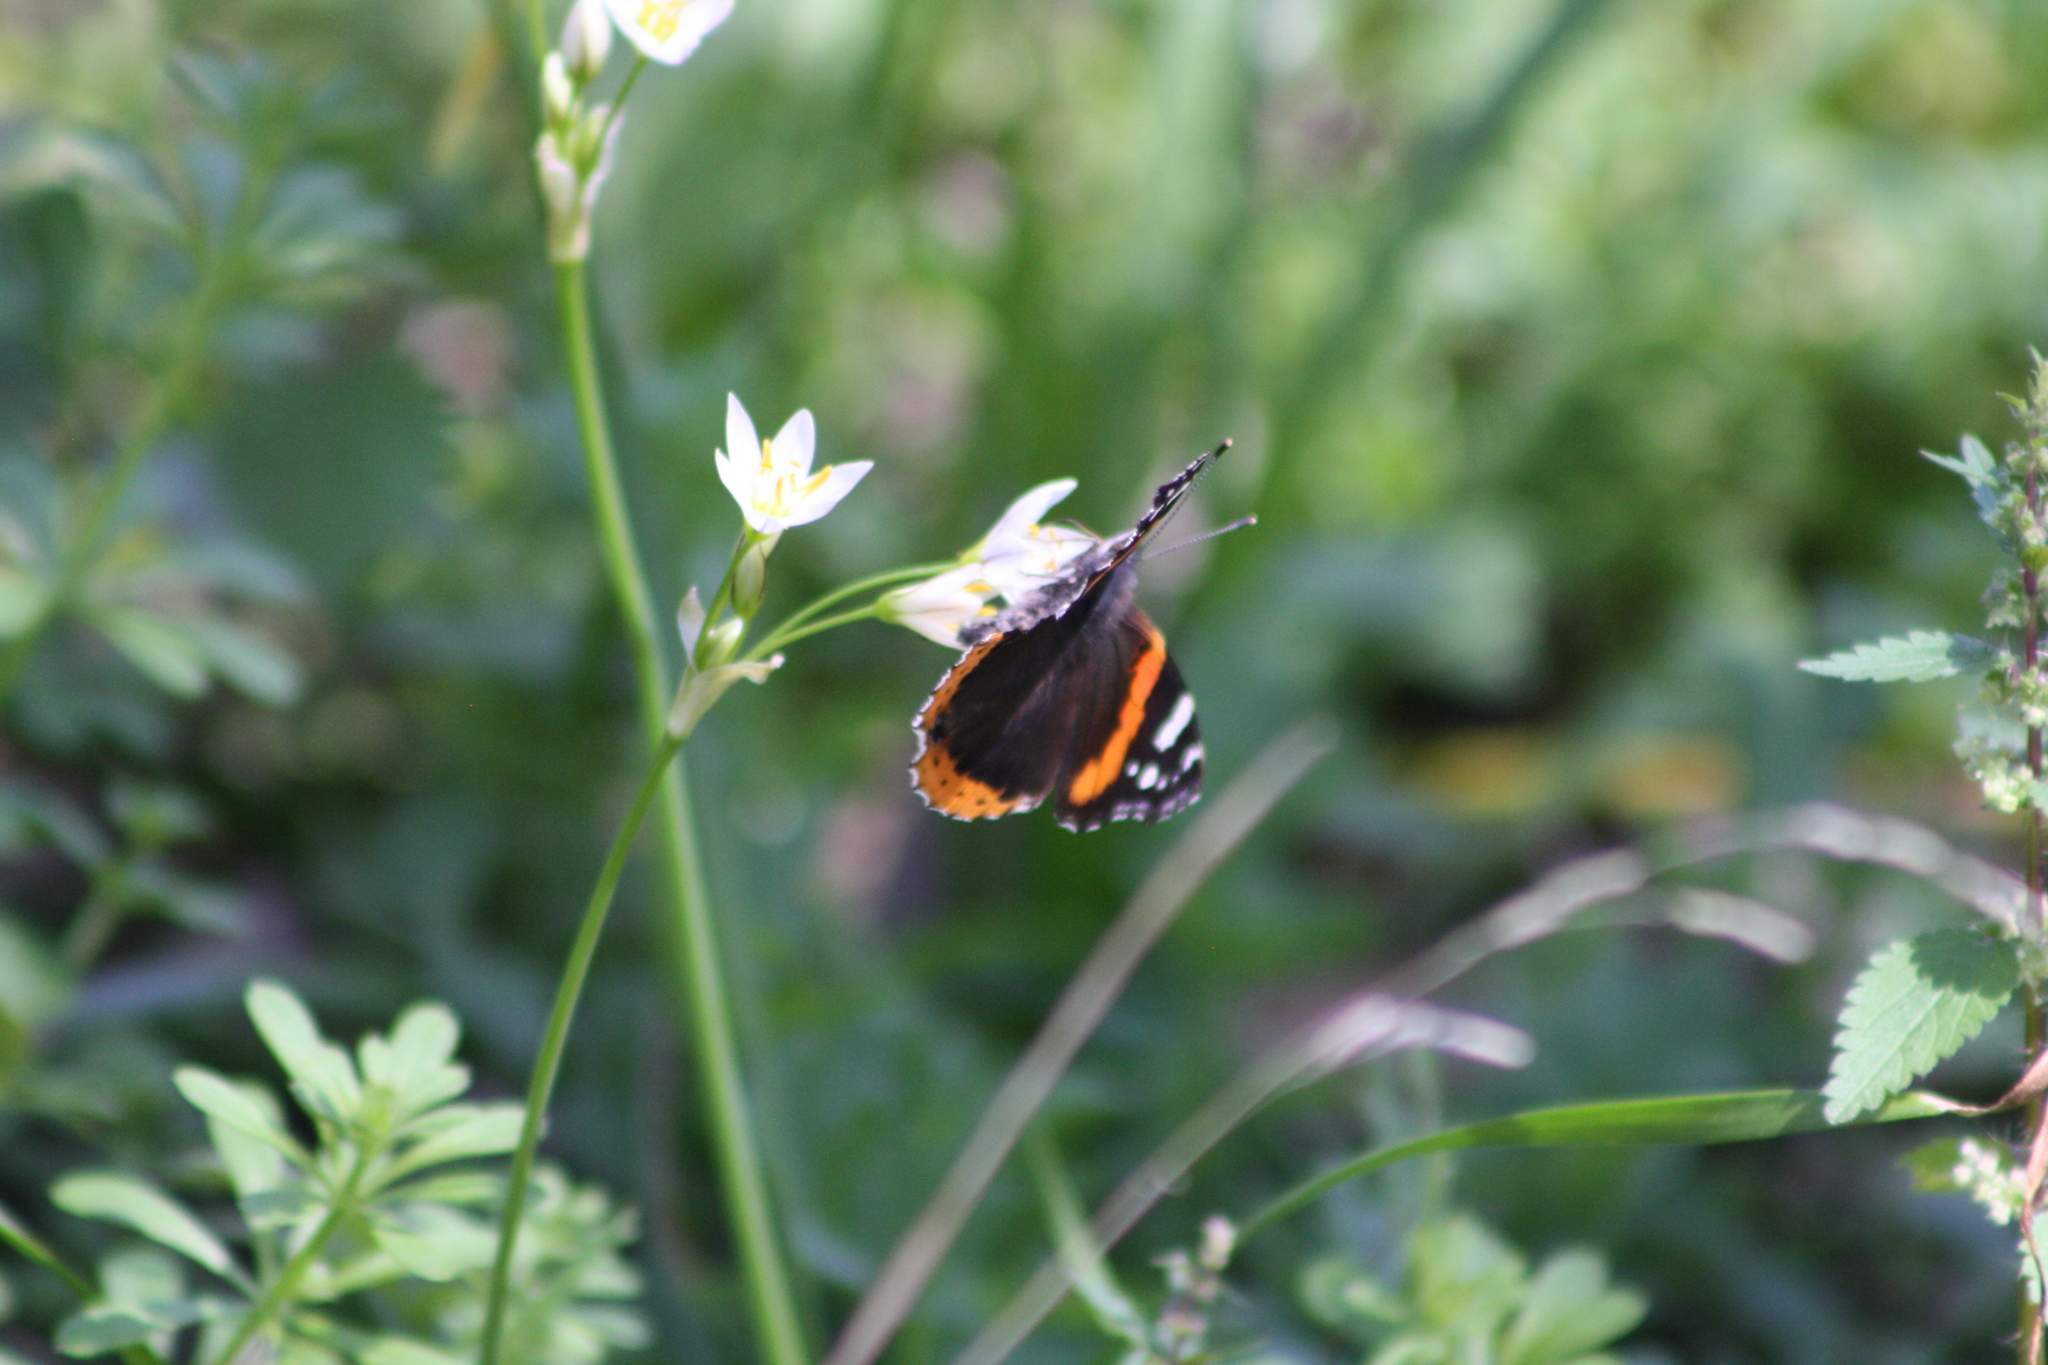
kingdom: Animalia
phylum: Arthropoda
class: Insecta
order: Lepidoptera
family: Nymphalidae
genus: Vanessa
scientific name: Vanessa atalanta
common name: Red admiral
